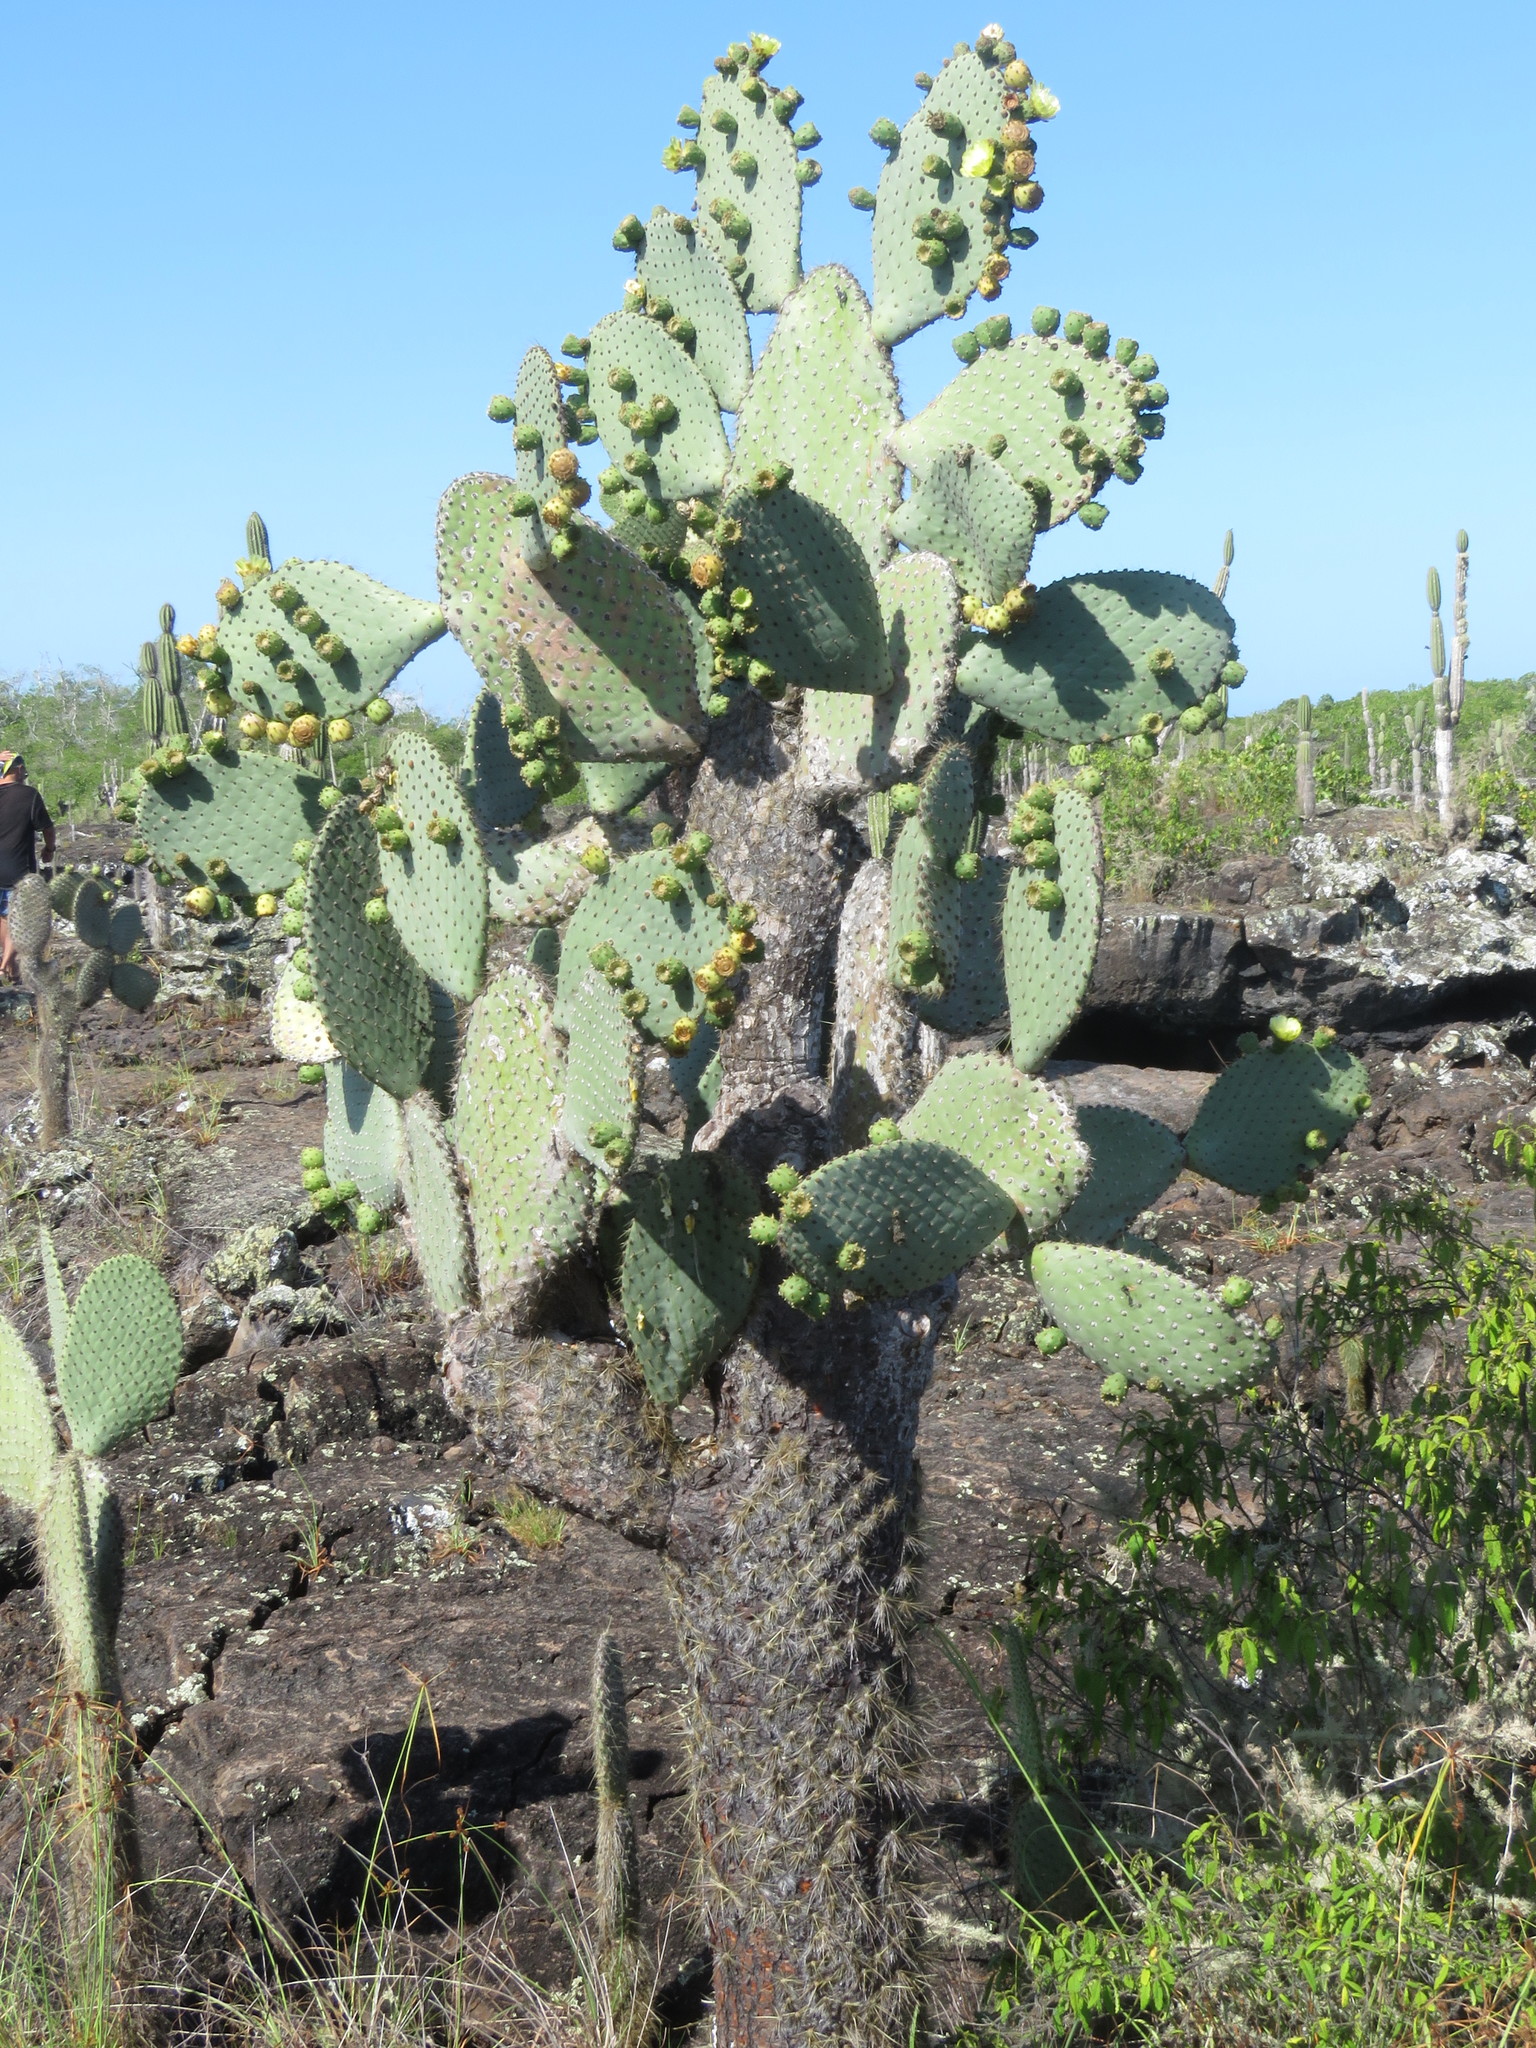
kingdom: Plantae
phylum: Tracheophyta
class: Magnoliopsida
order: Caryophyllales
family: Cactaceae
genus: Opuntia
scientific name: Opuntia galapageia
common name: Galápagos prickly pear
